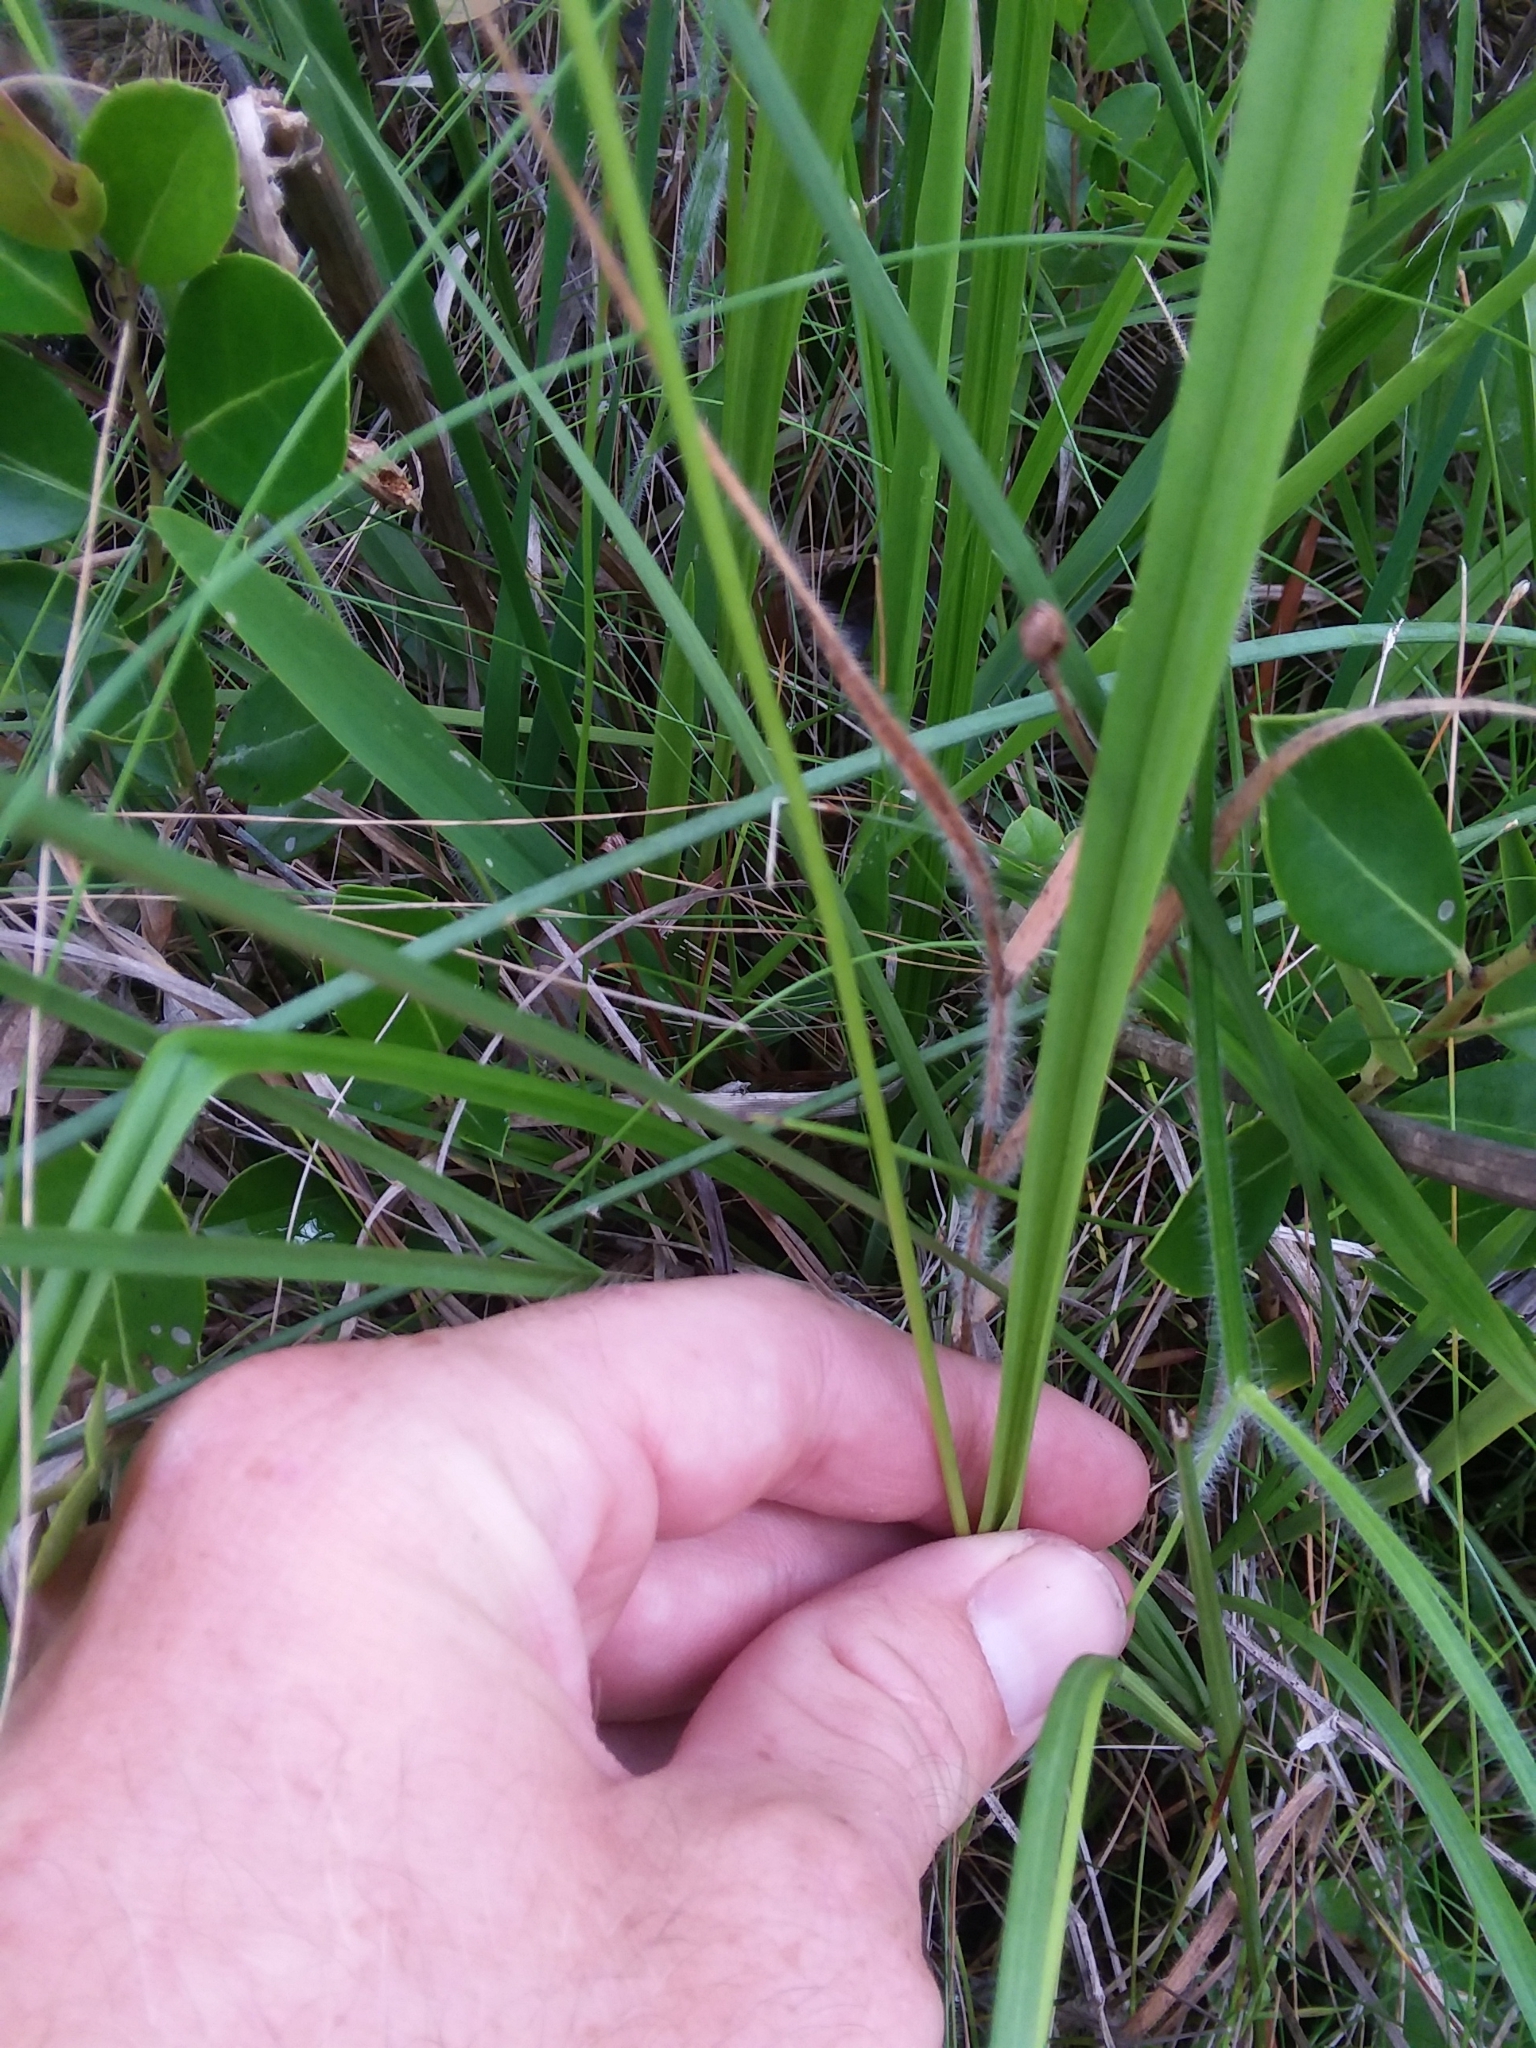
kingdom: Plantae
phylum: Tracheophyta
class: Liliopsida
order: Asparagales
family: Orchidaceae
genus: Calopogon
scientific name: Calopogon tuberosus
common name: Grass-pink
